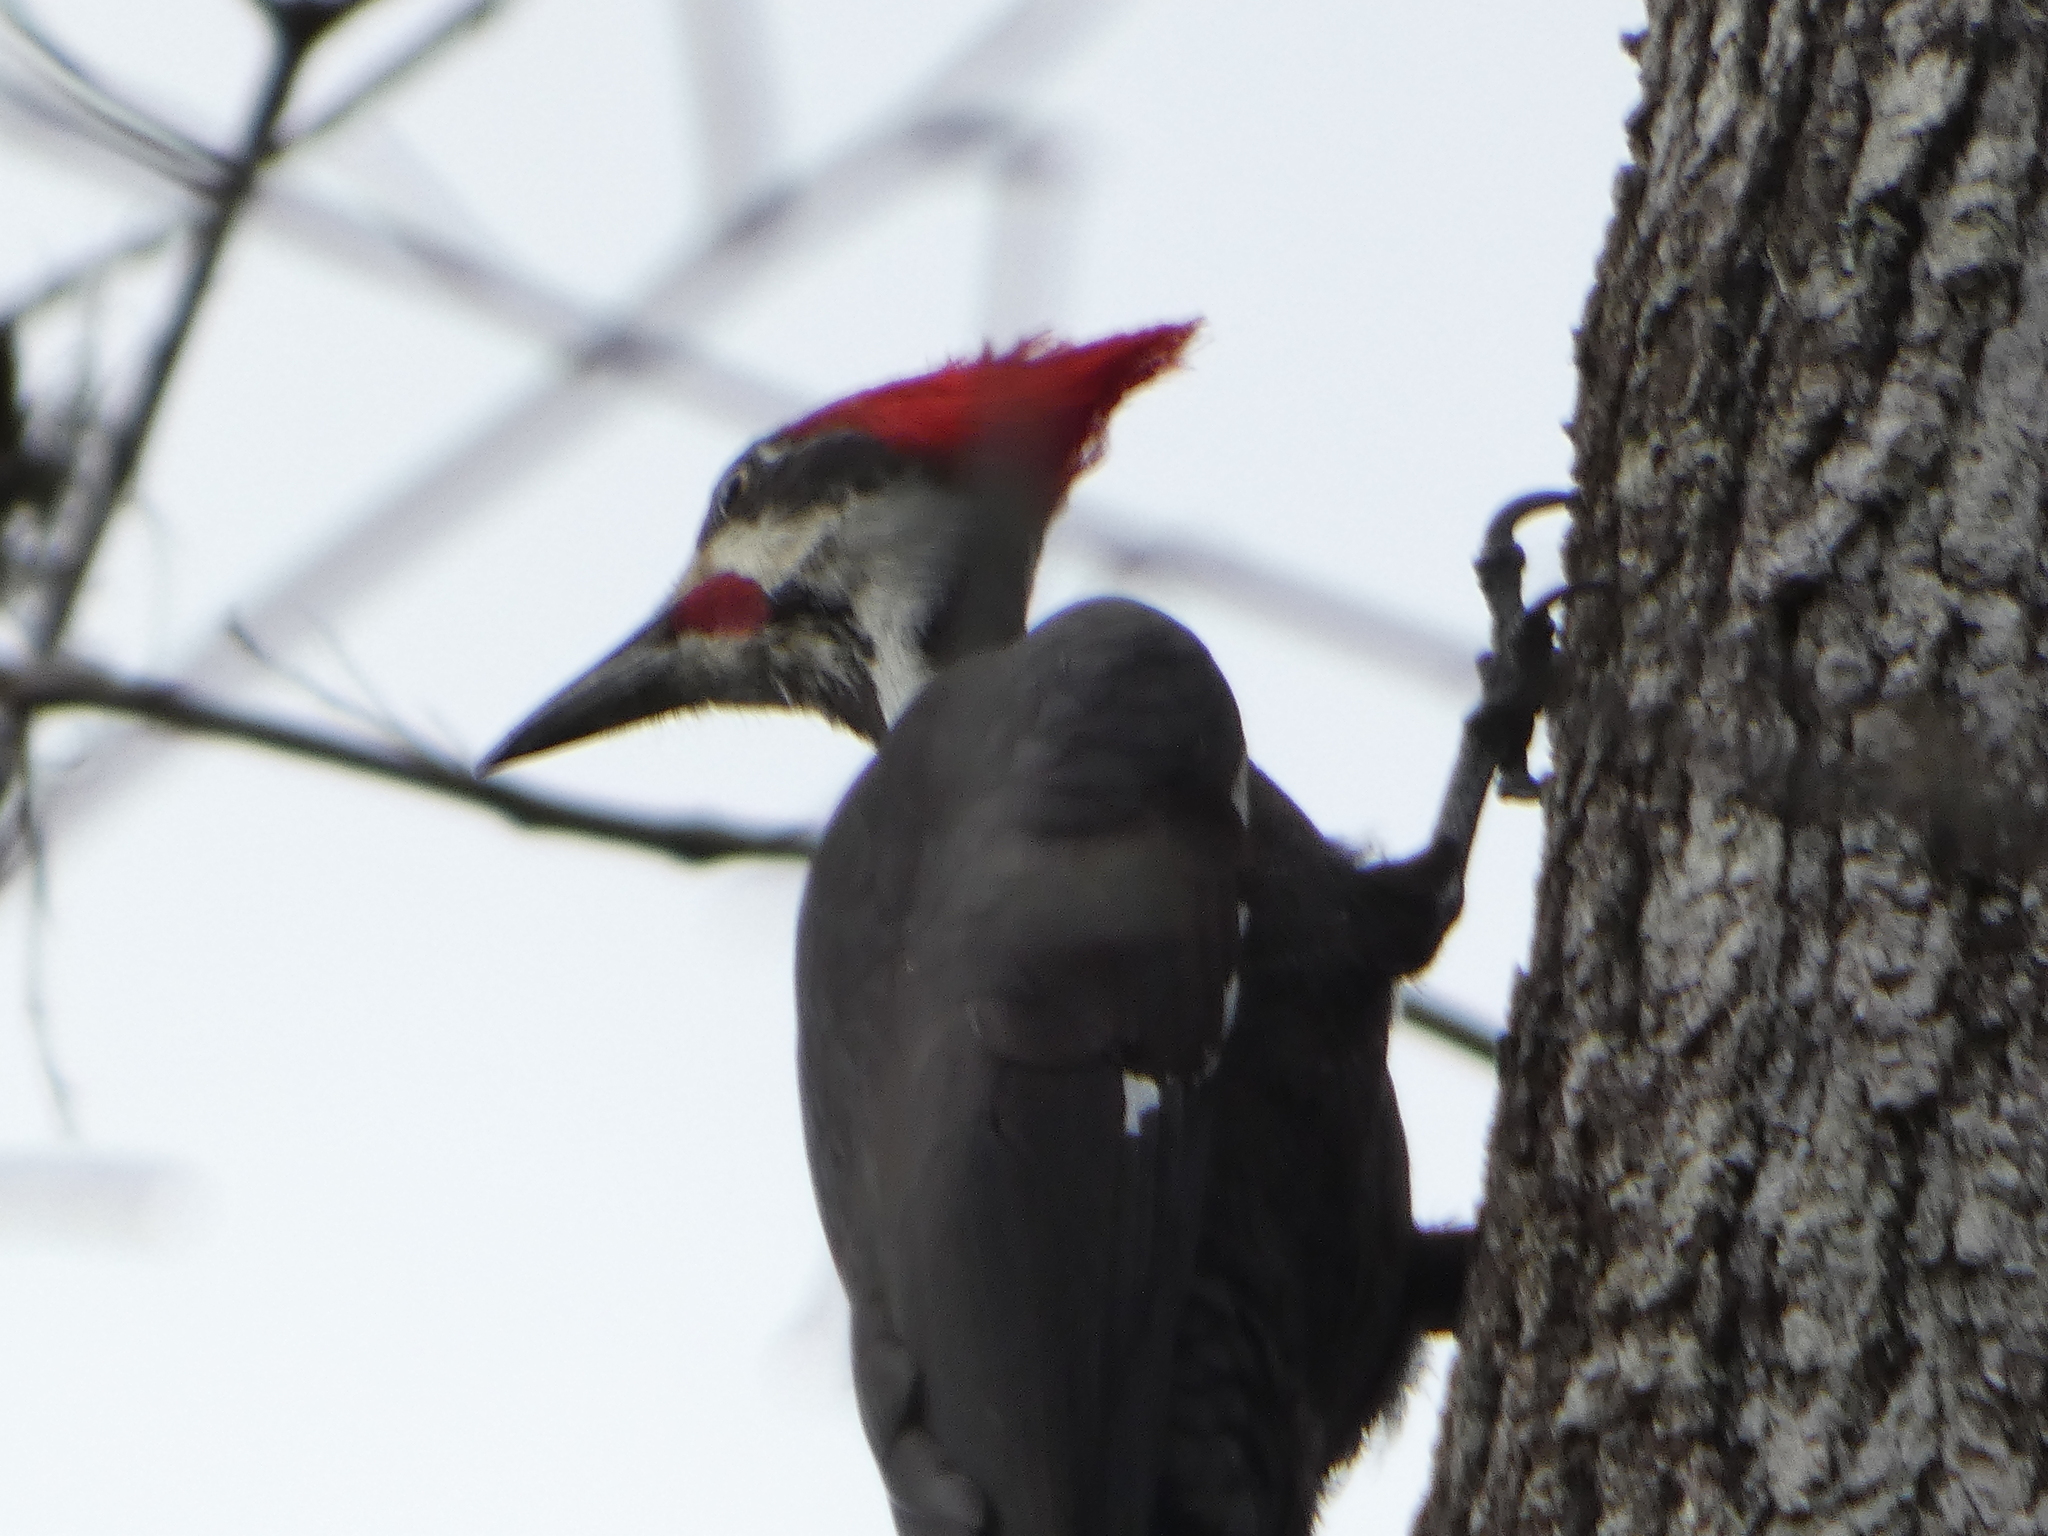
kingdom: Animalia
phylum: Chordata
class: Aves
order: Piciformes
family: Picidae
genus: Dryocopus
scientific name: Dryocopus pileatus
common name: Pileated woodpecker
